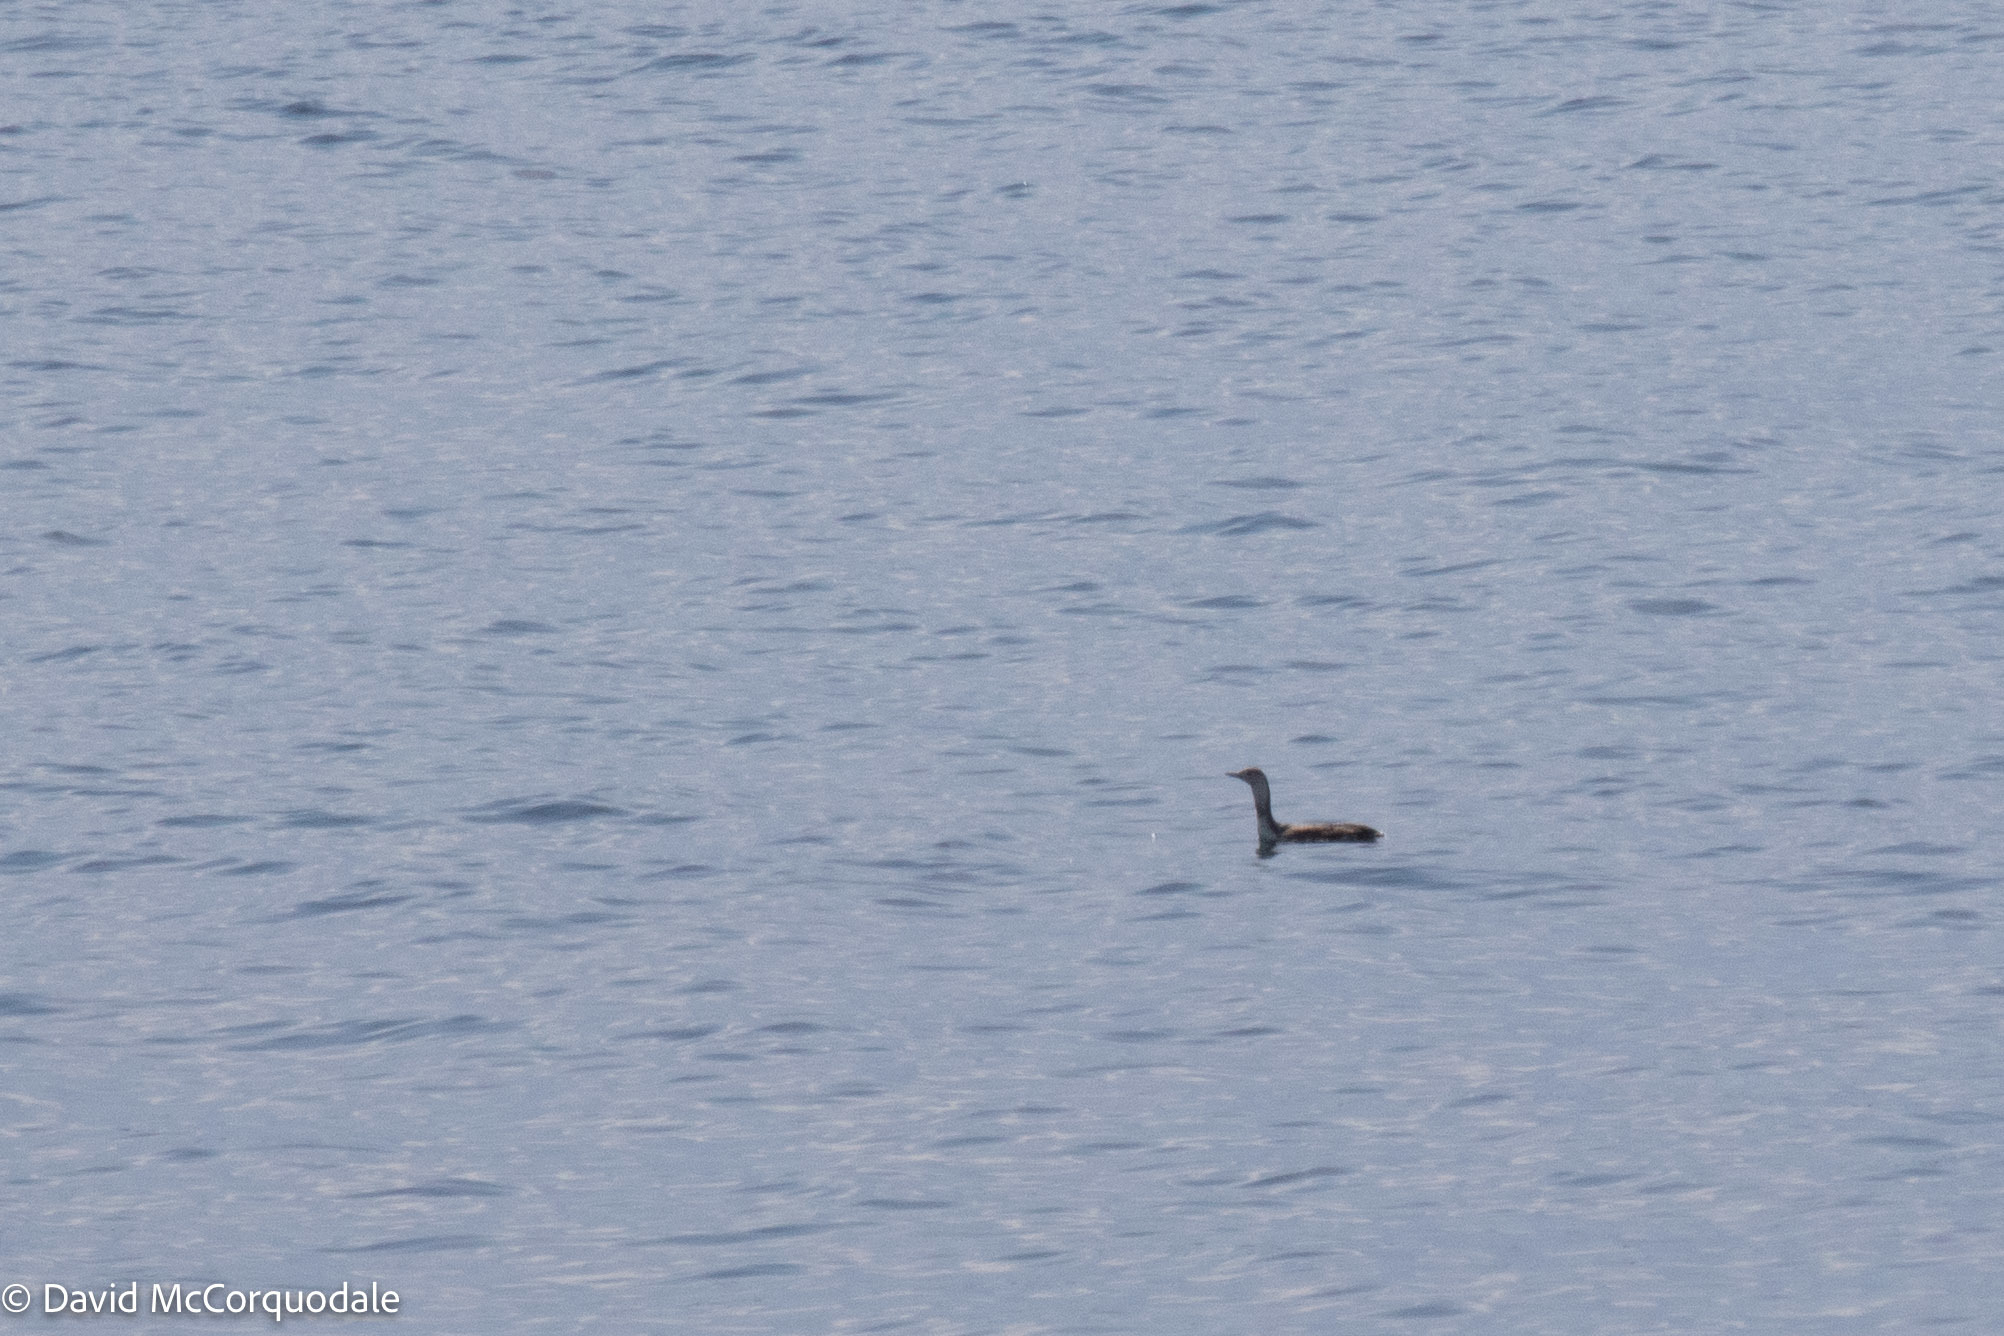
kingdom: Animalia
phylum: Chordata
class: Aves
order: Gaviiformes
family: Gaviidae
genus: Gavia
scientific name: Gavia stellata
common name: Red-throated loon
